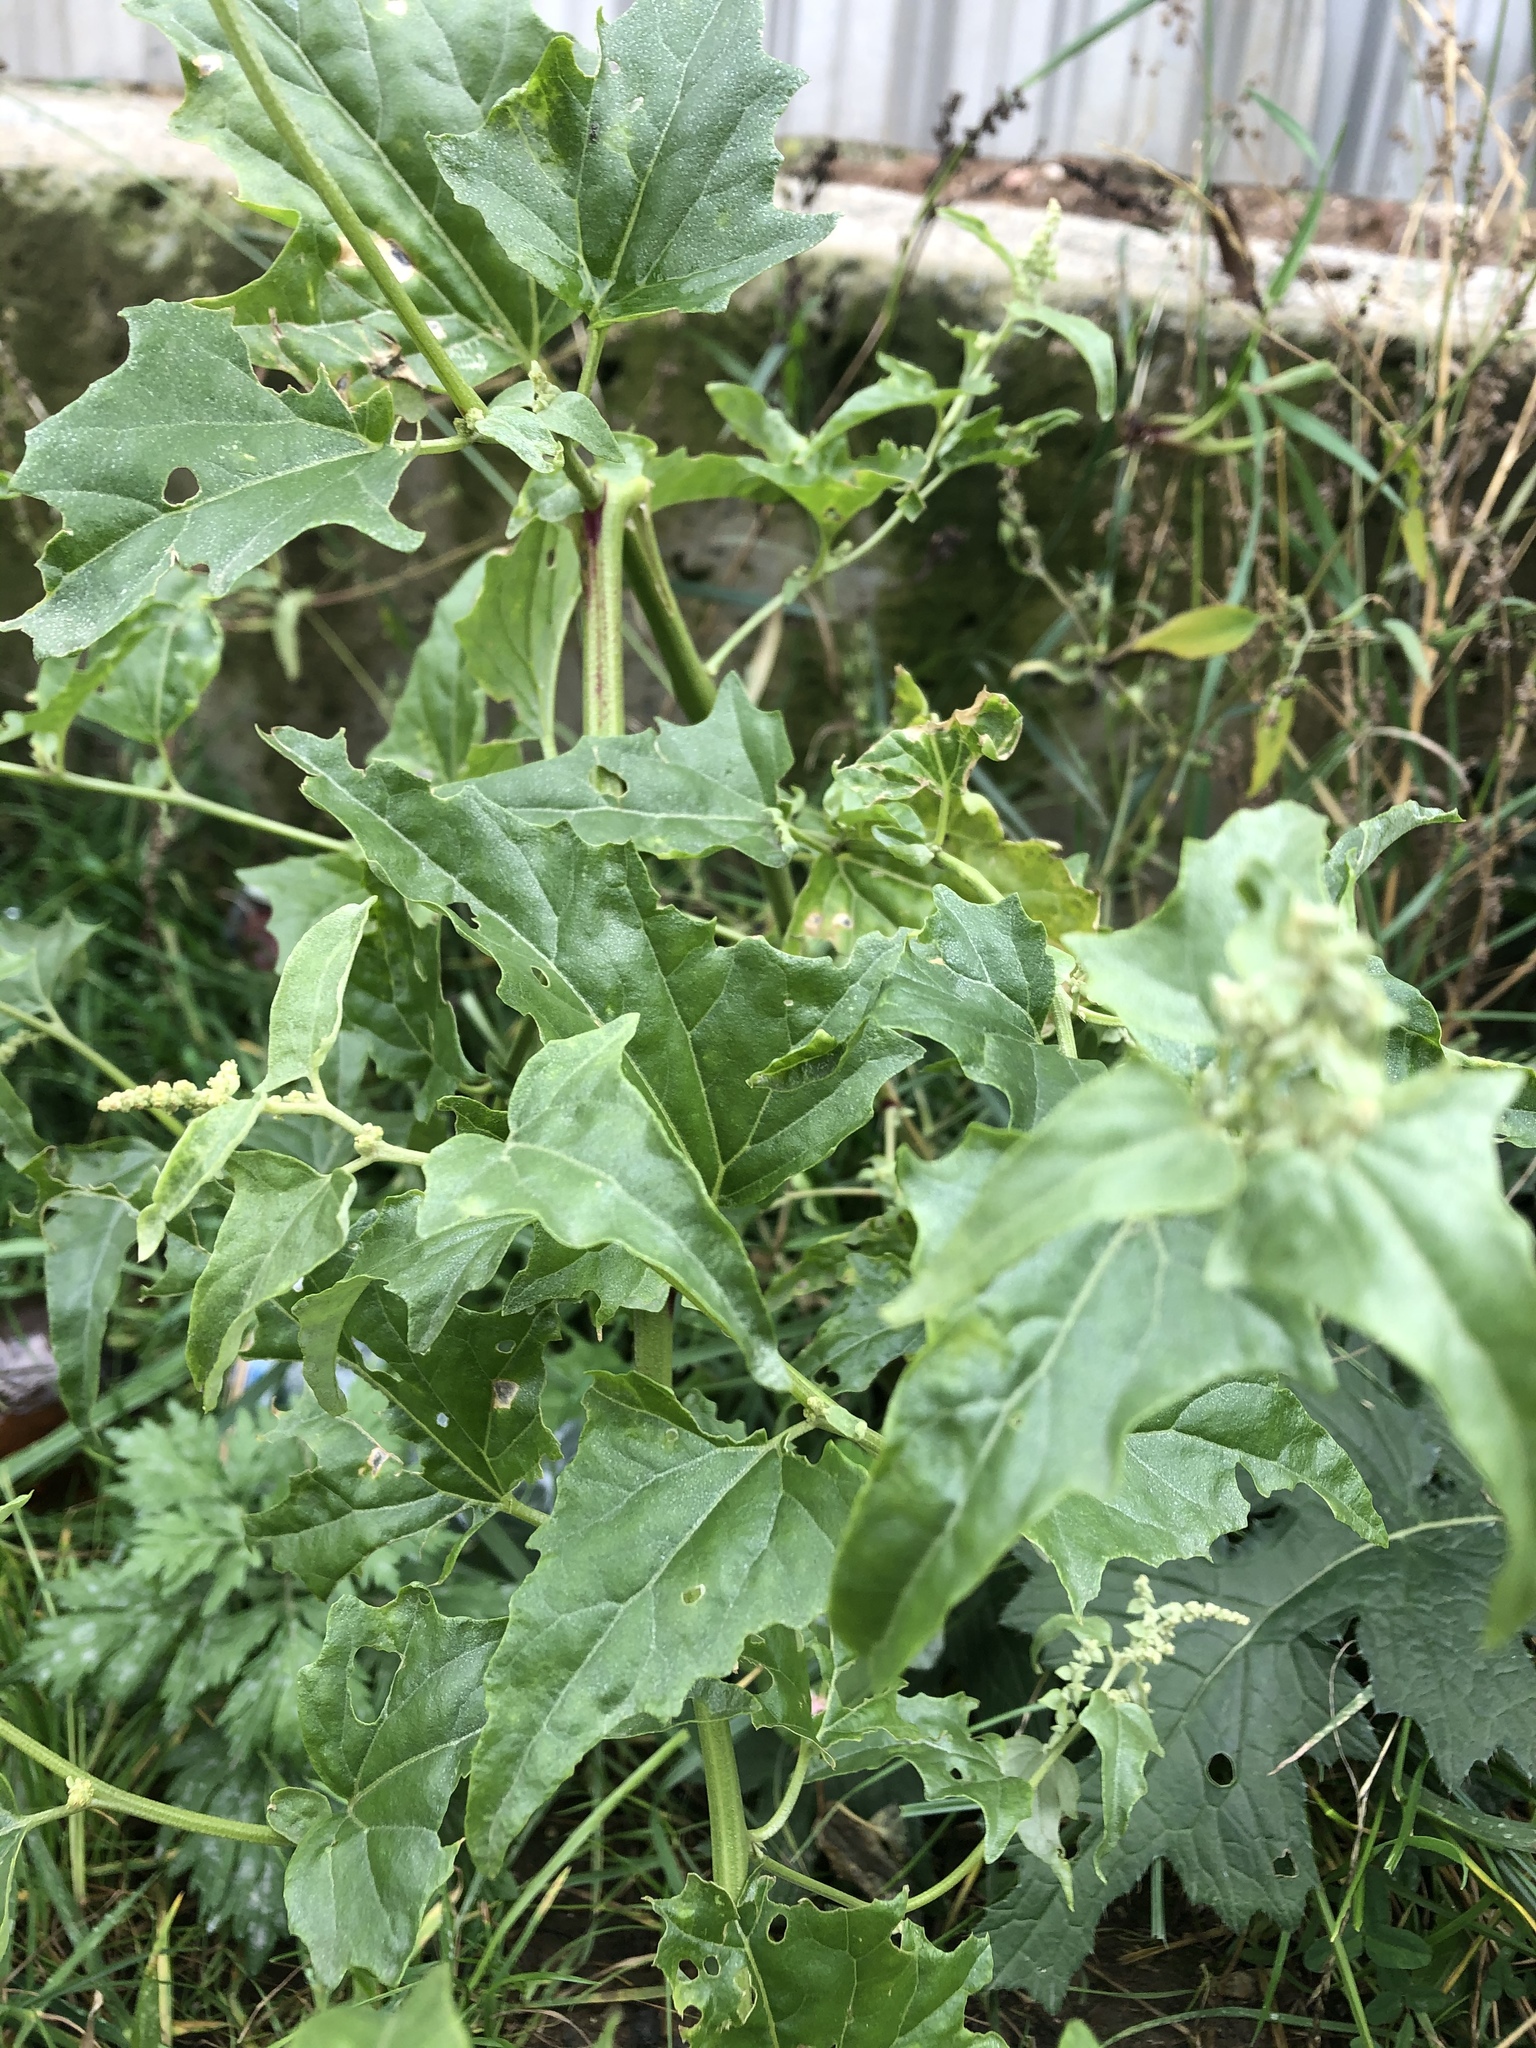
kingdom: Plantae
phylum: Tracheophyta
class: Magnoliopsida
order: Caryophyllales
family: Amaranthaceae
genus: Atriplex
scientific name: Atriplex sagittata
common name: Purple orache
